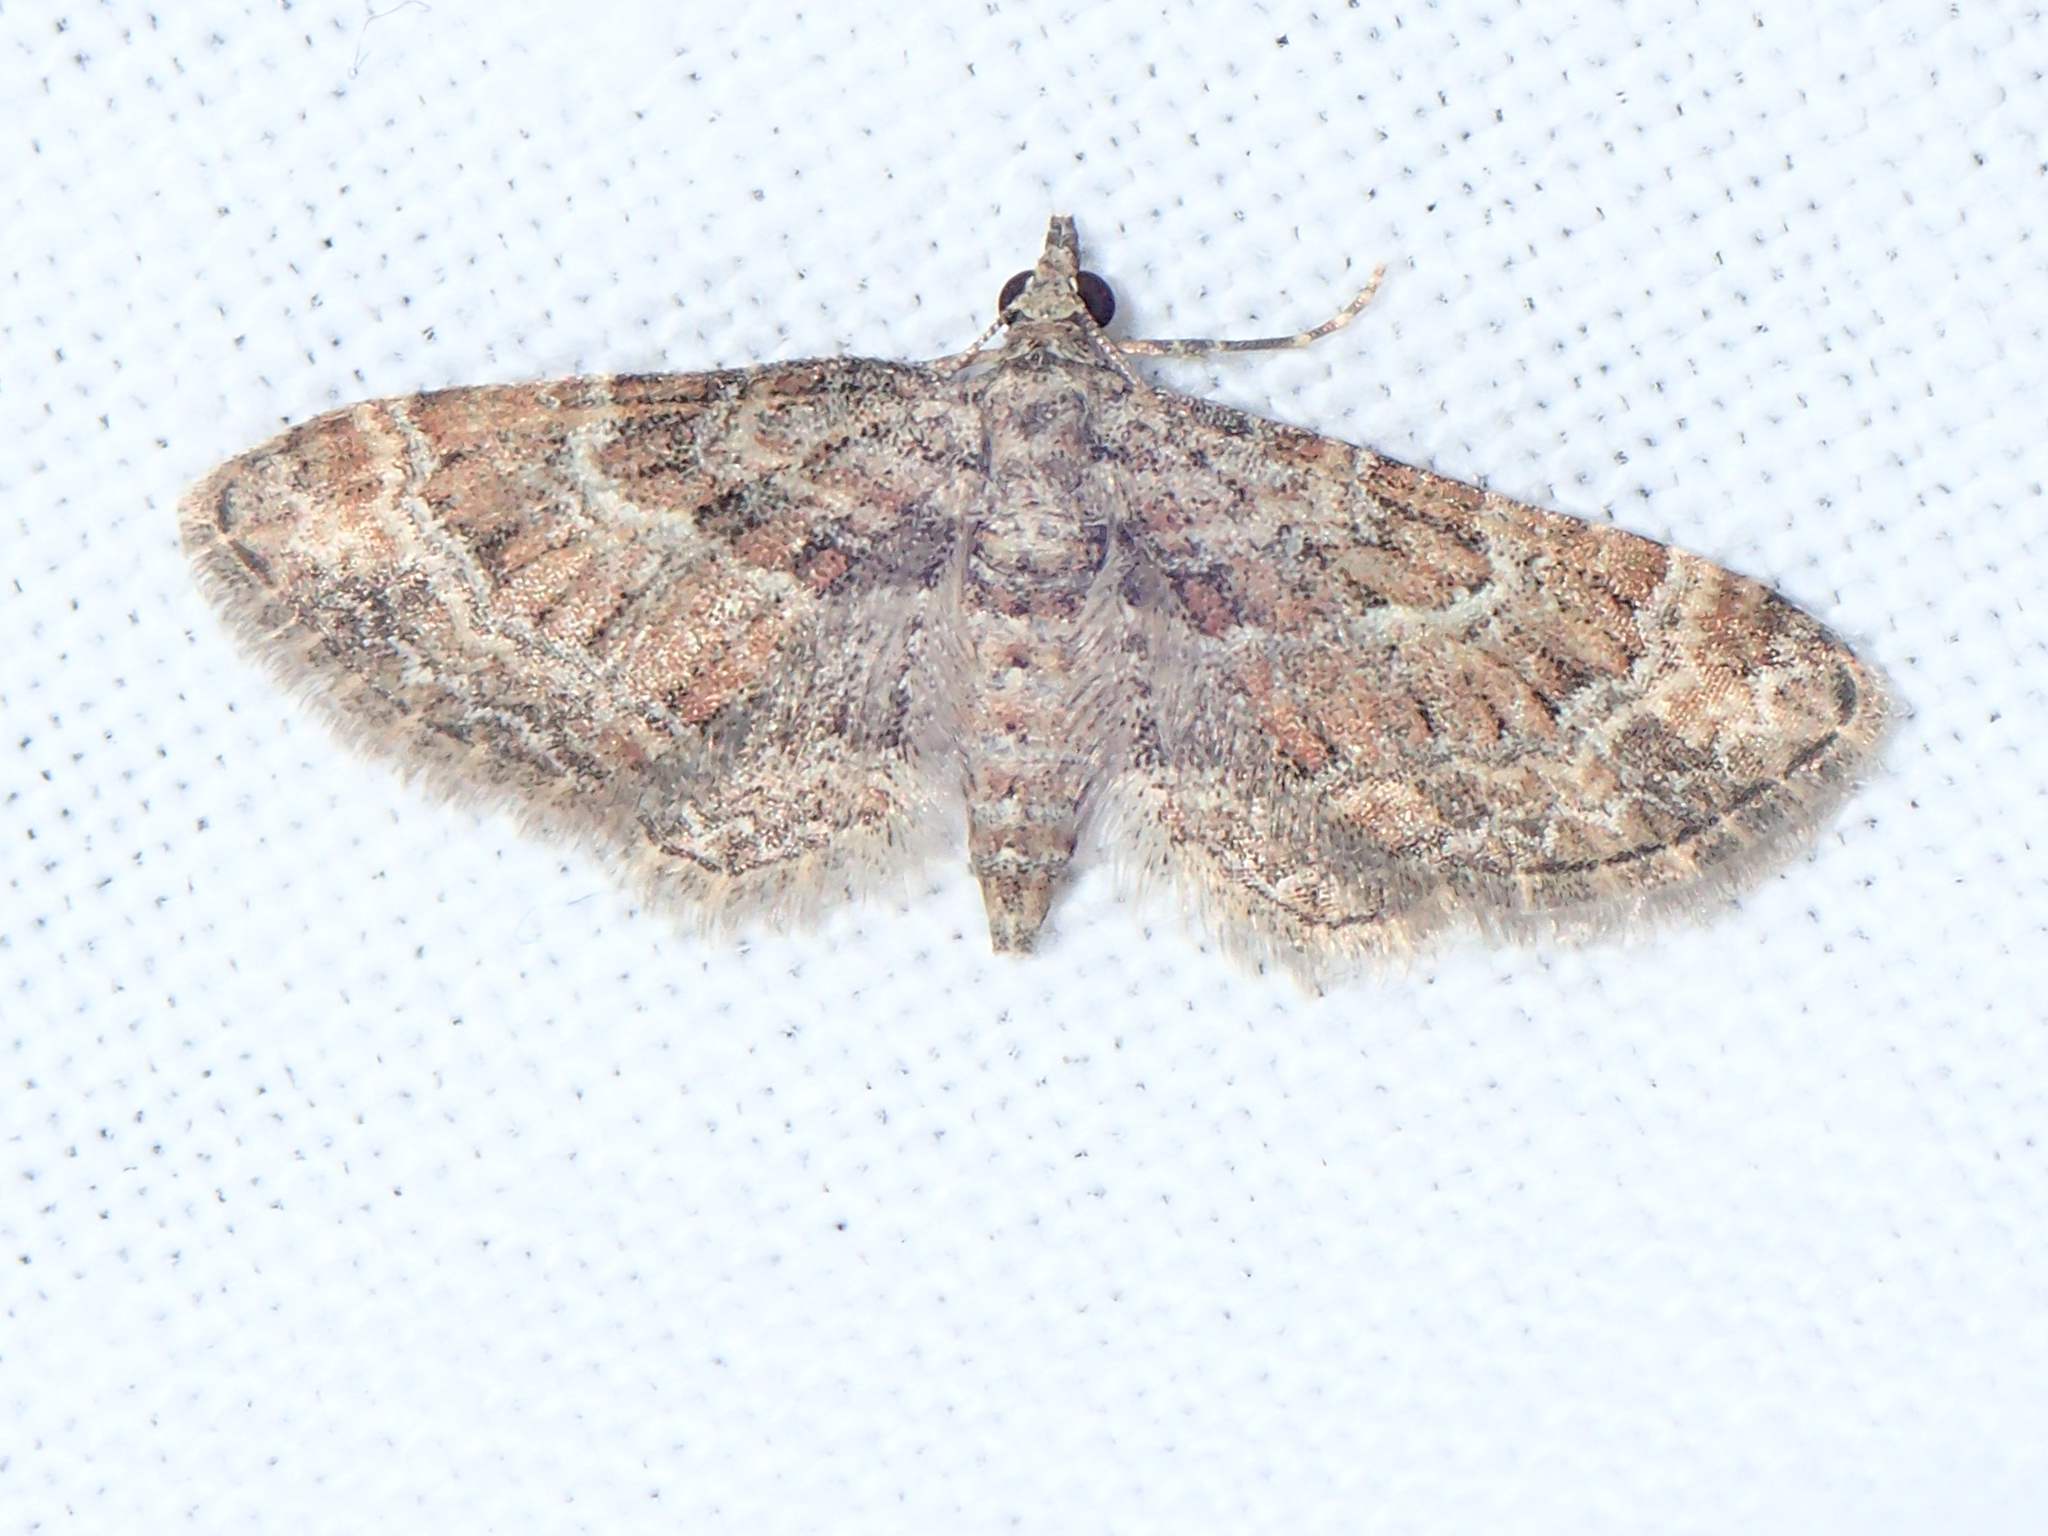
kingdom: Animalia
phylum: Arthropoda
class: Insecta
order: Lepidoptera
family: Geometridae
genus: Gymnoscelis
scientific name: Gymnoscelis rufifasciata
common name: Double-striped pug
